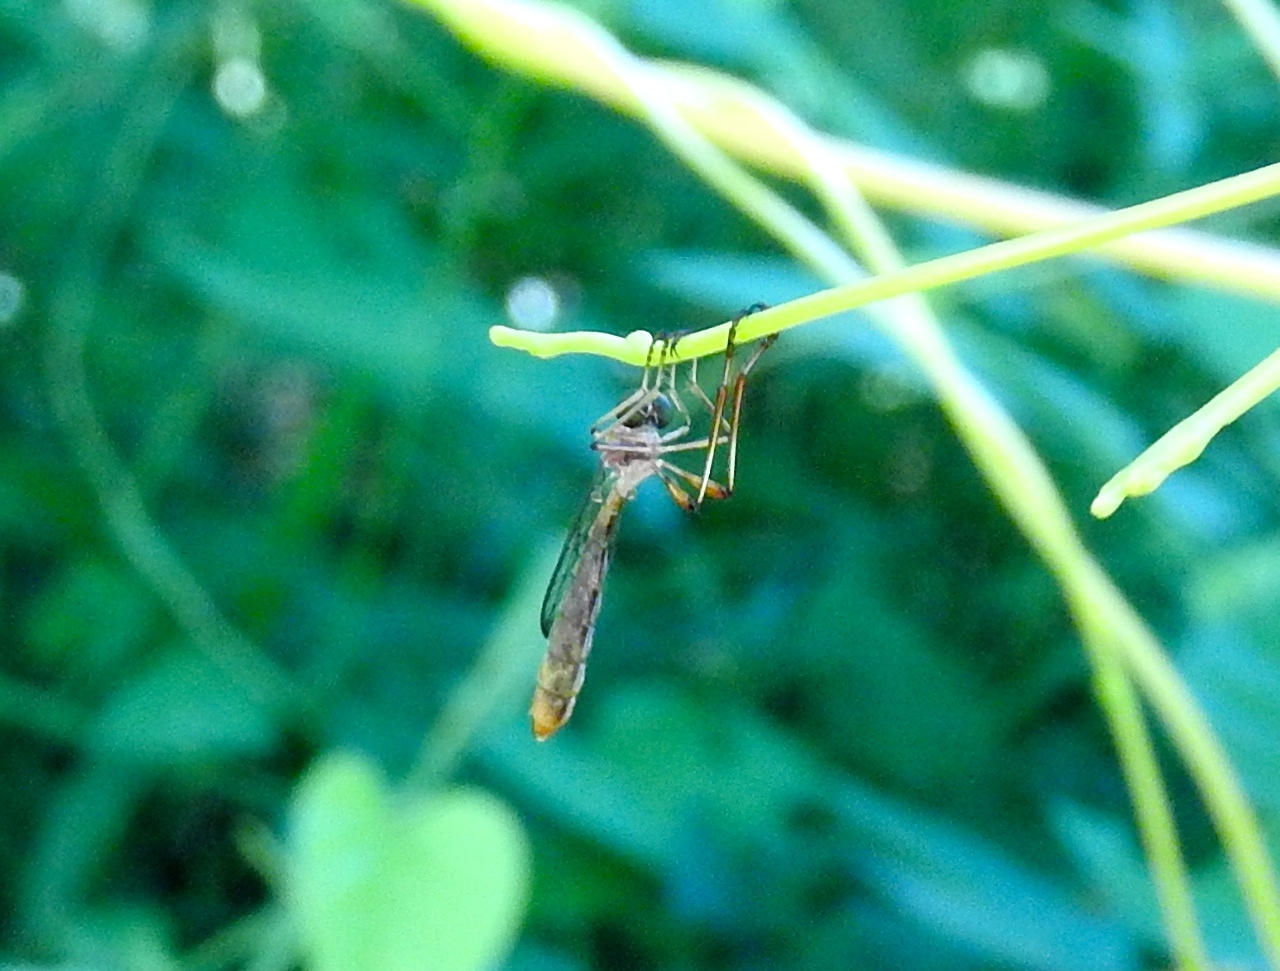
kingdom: Animalia
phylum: Arthropoda
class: Insecta
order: Diptera
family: Asilidae
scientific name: Asilidae
